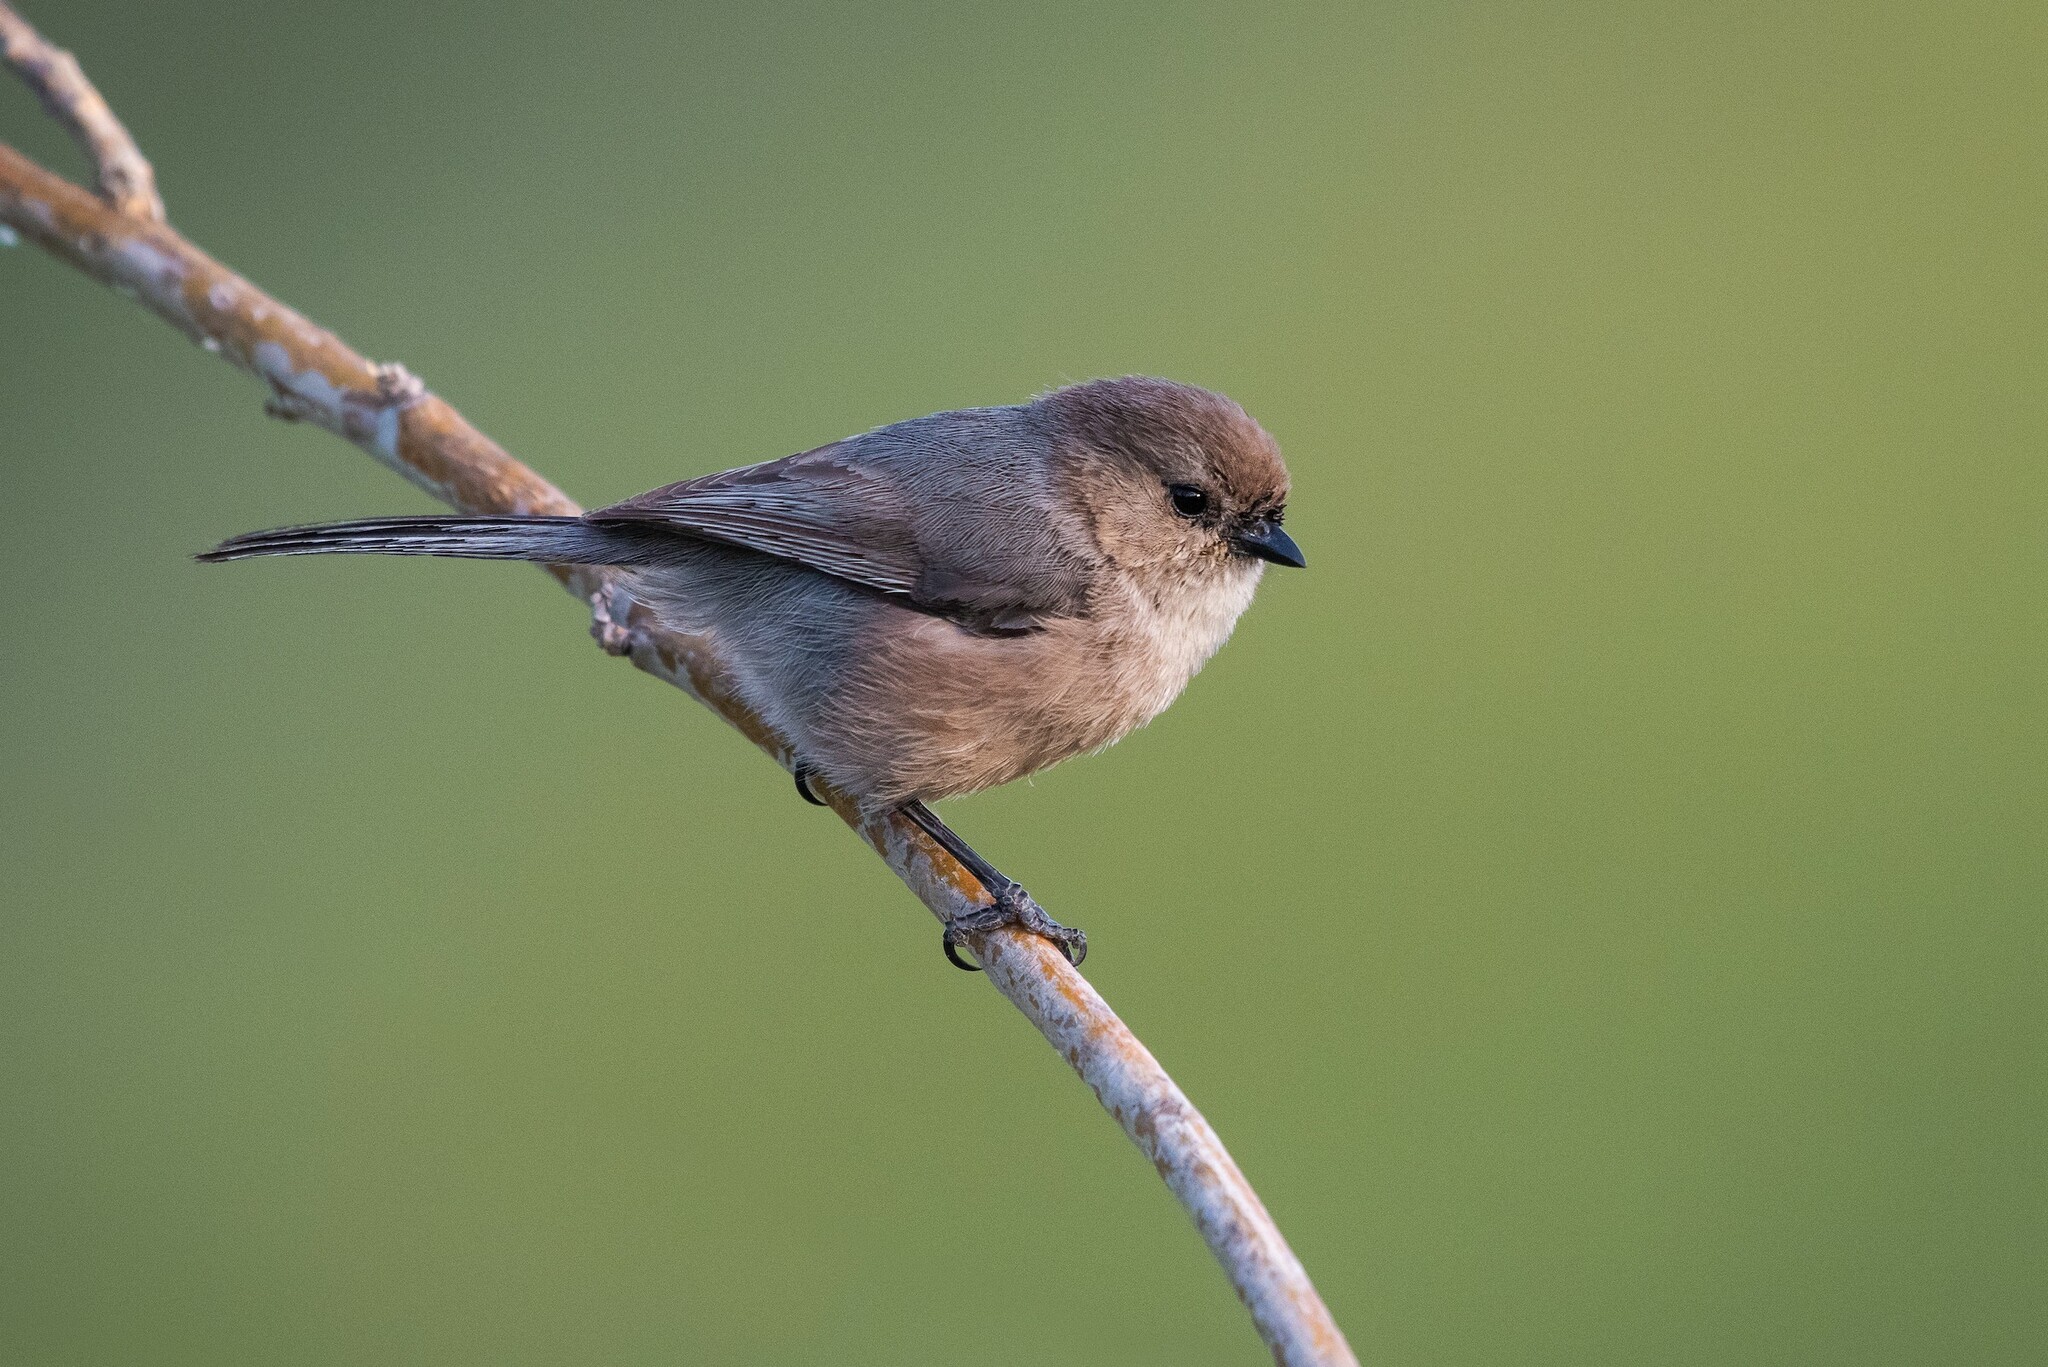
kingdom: Animalia
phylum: Chordata
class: Aves
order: Passeriformes
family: Aegithalidae
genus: Psaltriparus
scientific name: Psaltriparus minimus
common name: American bushtit
